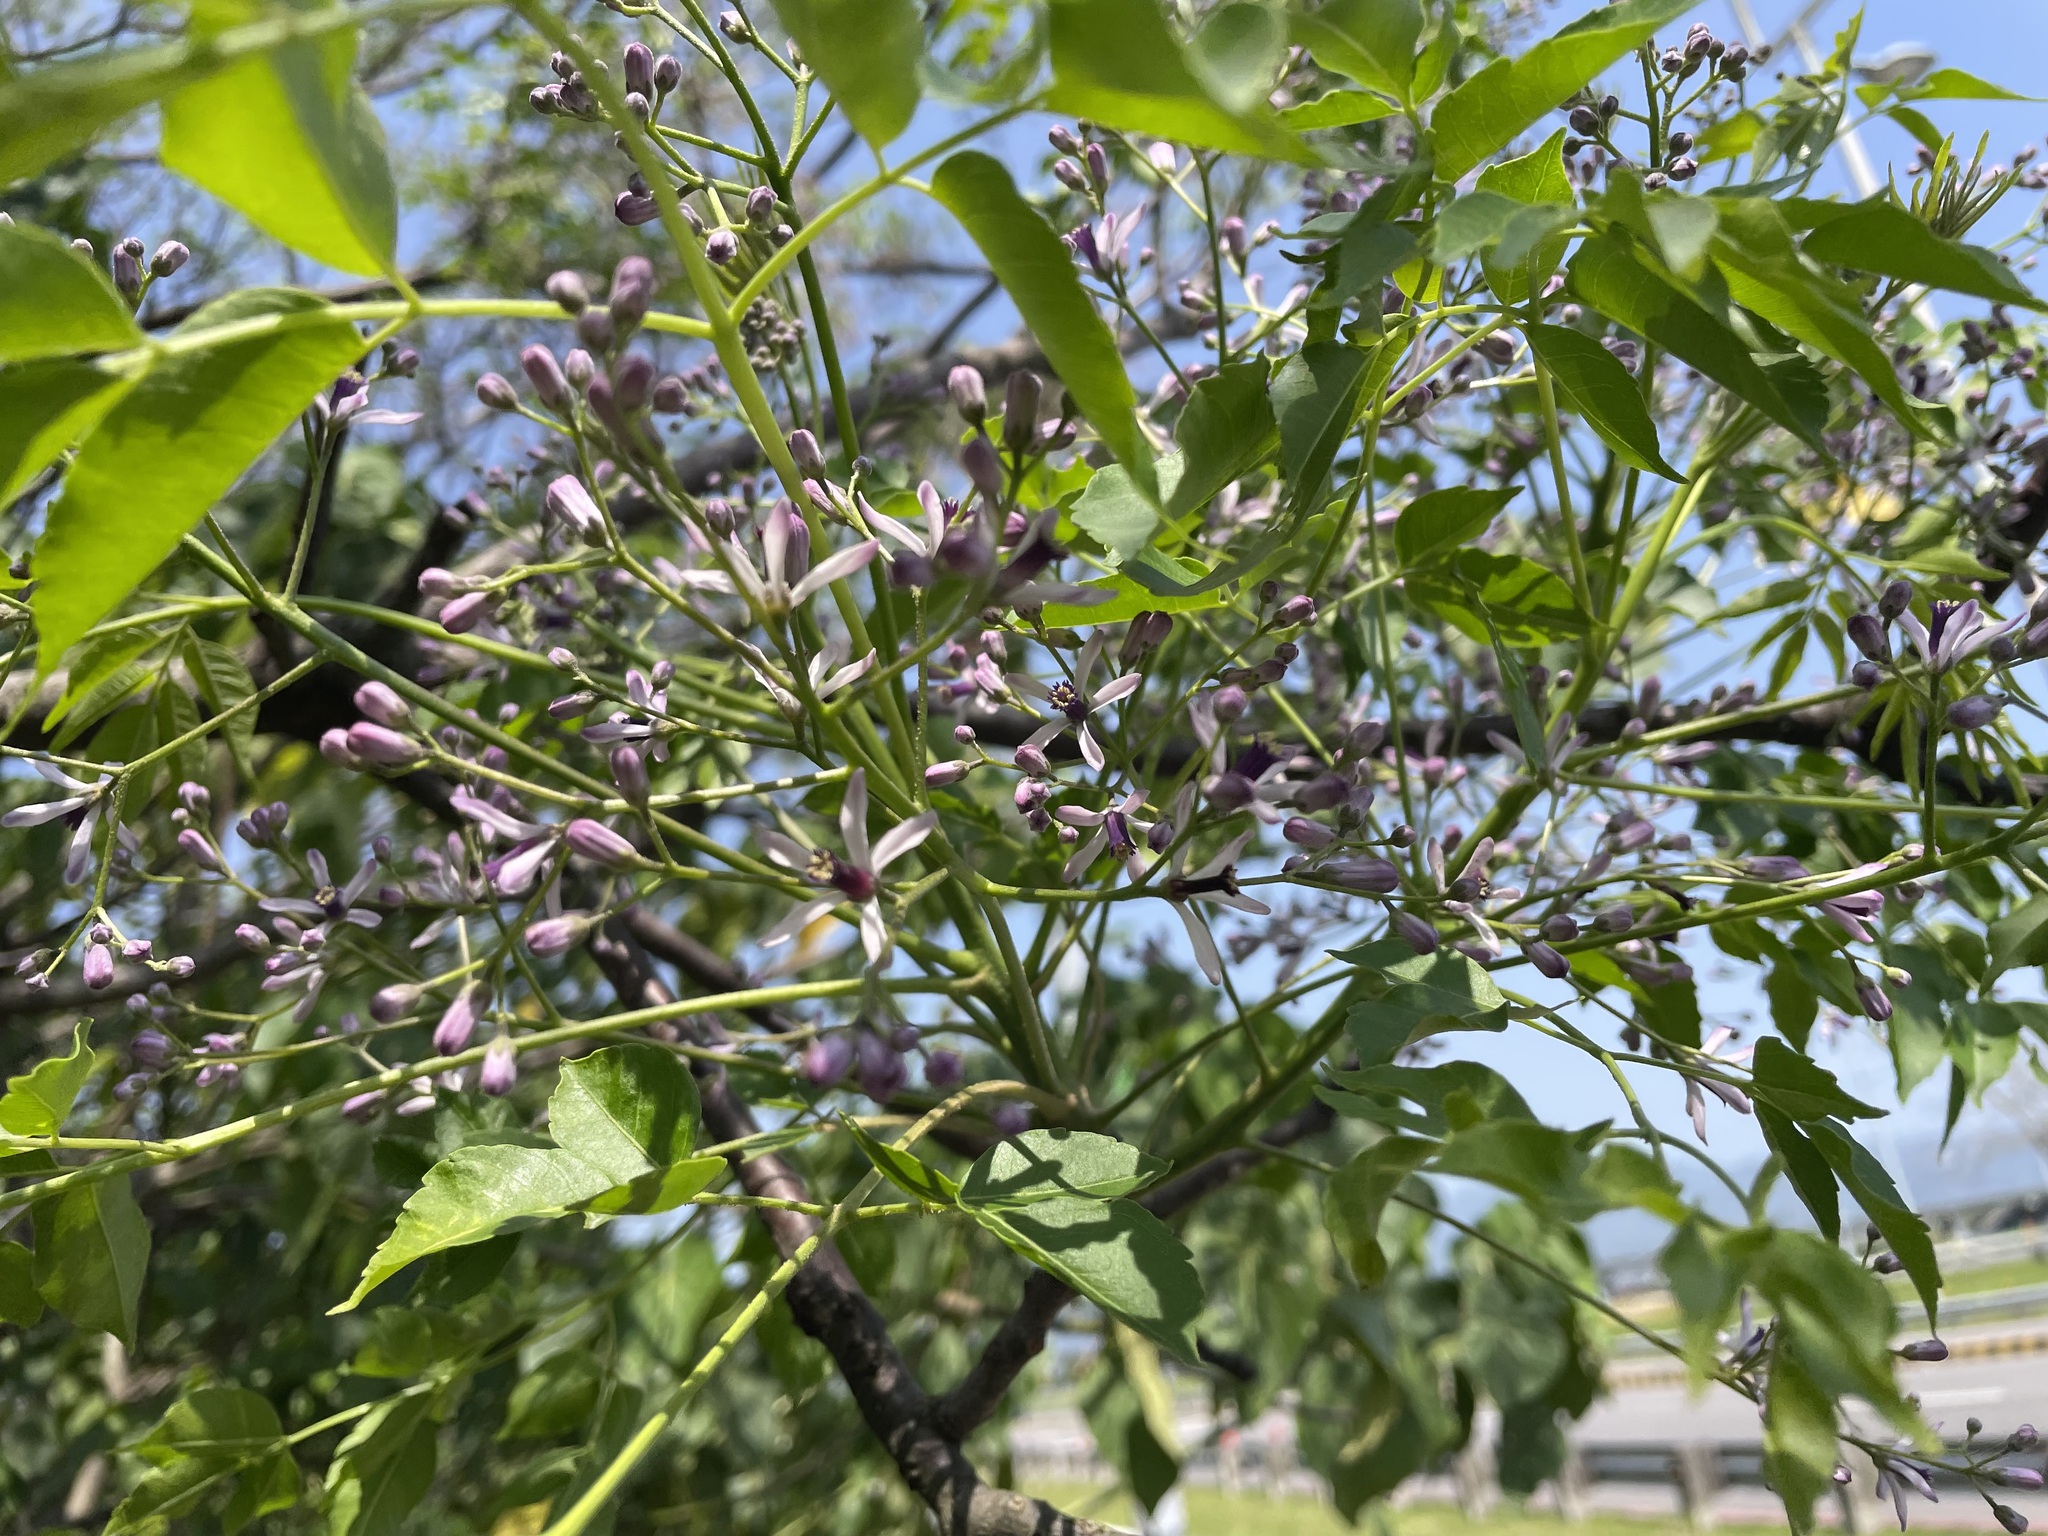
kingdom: Plantae
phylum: Tracheophyta
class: Magnoliopsida
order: Sapindales
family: Meliaceae
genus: Melia
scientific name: Melia azedarach
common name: Chinaberrytree
